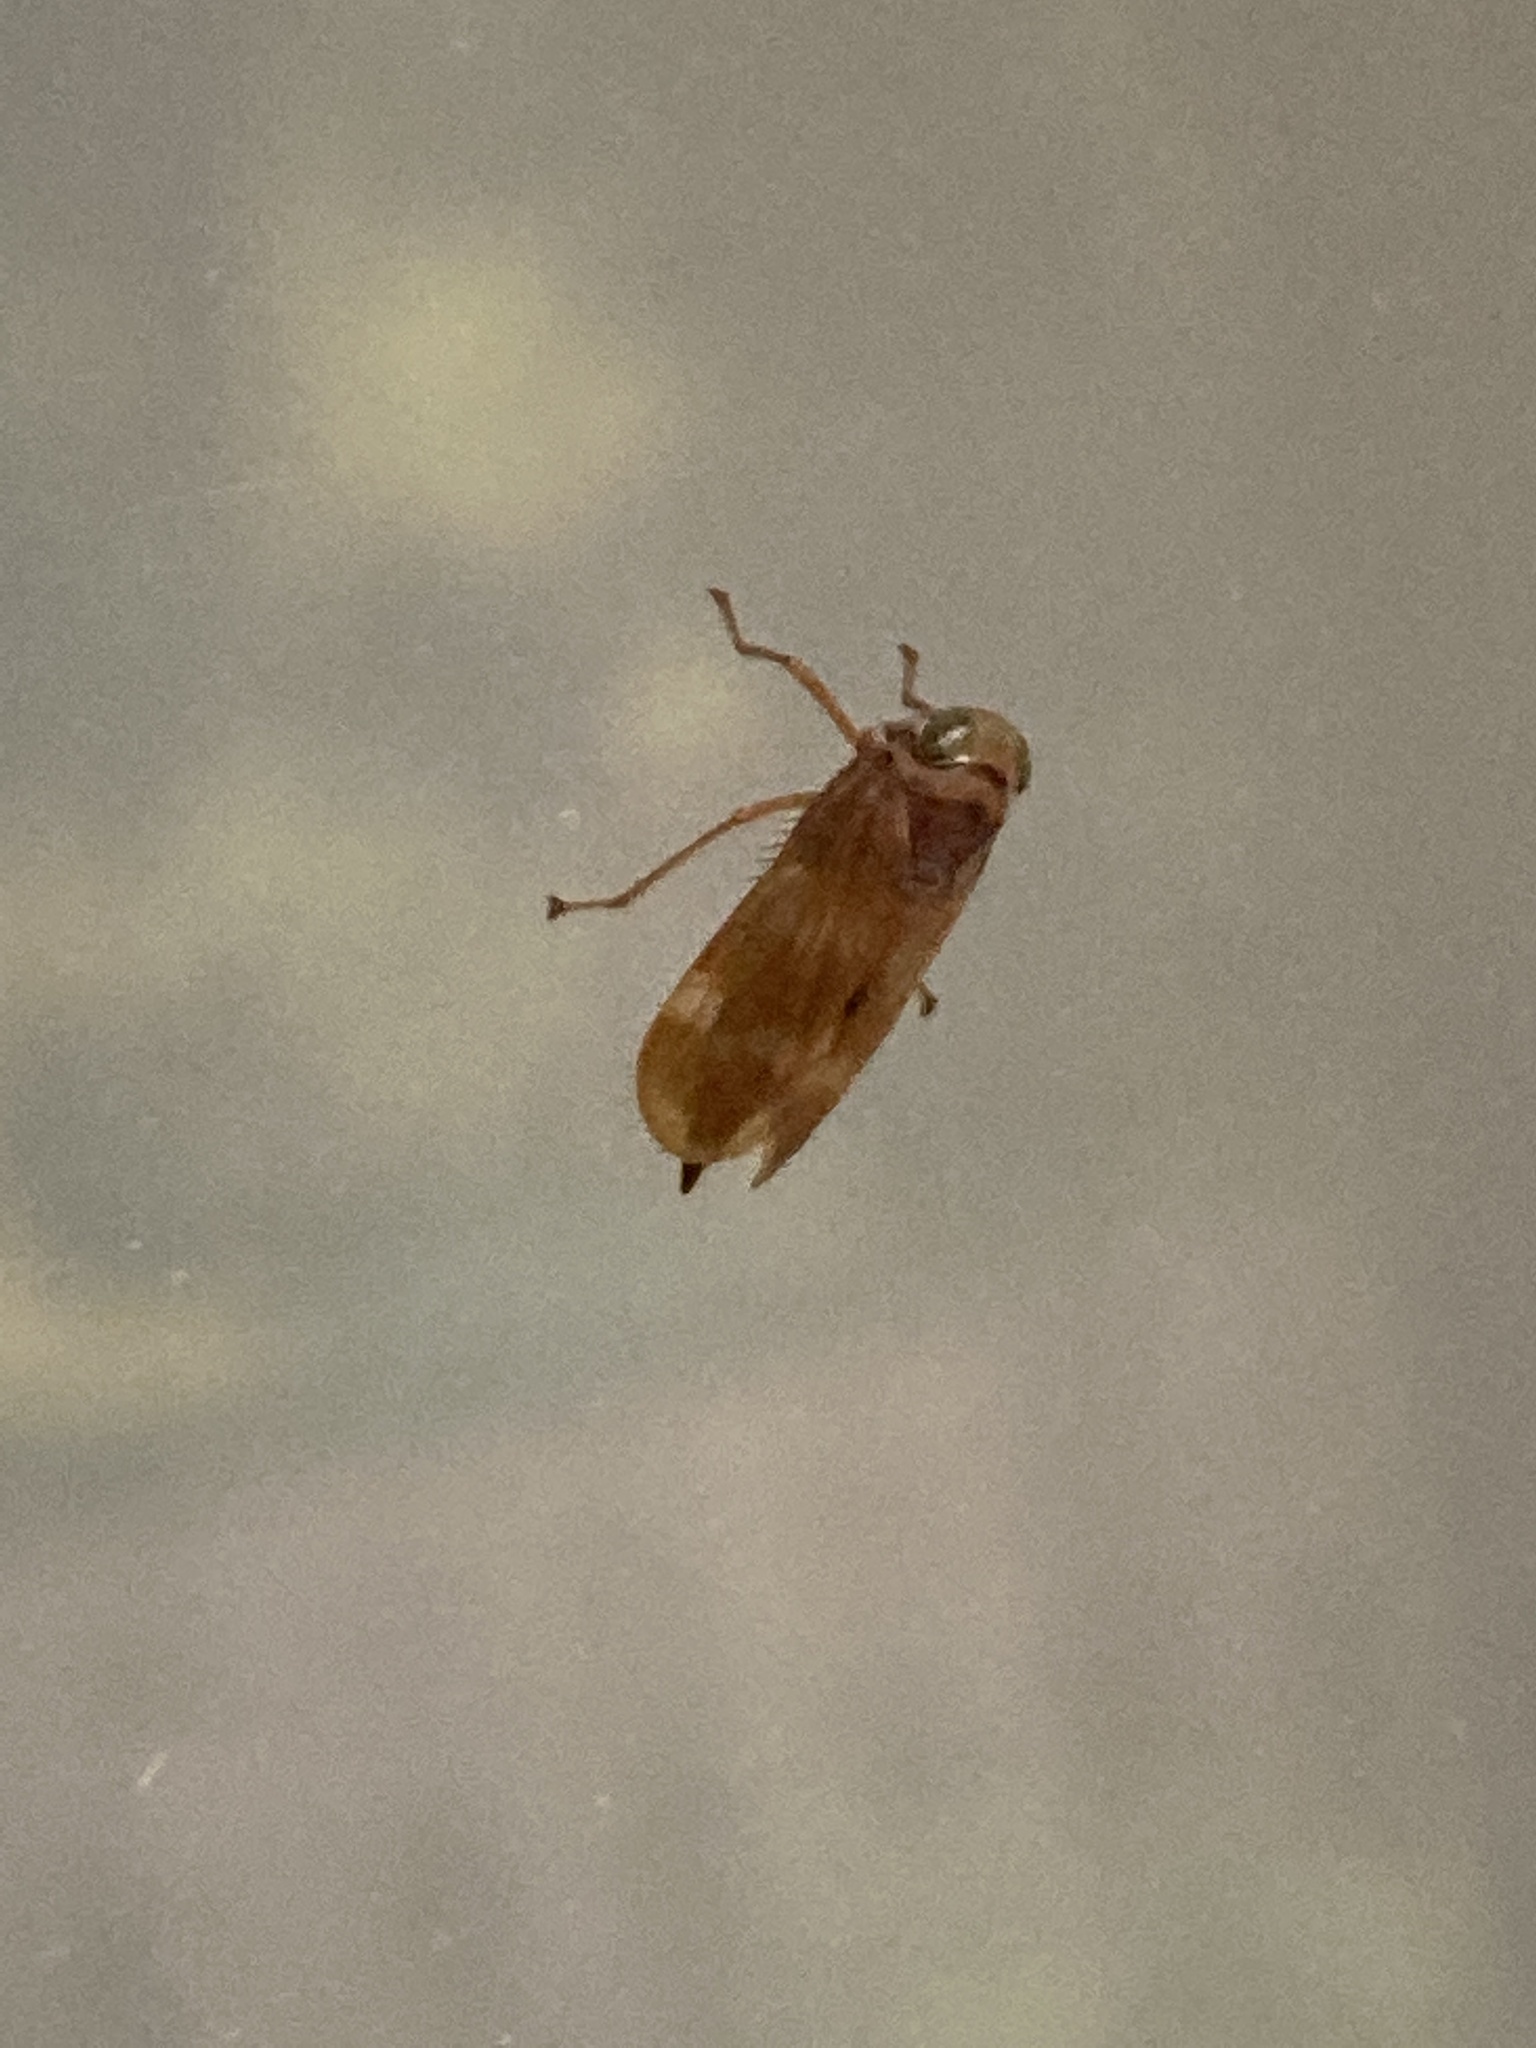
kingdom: Animalia
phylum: Arthropoda
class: Insecta
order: Hemiptera
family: Cicadellidae
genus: Jikradia
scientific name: Jikradia olitoria
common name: Coppery leafhopper
